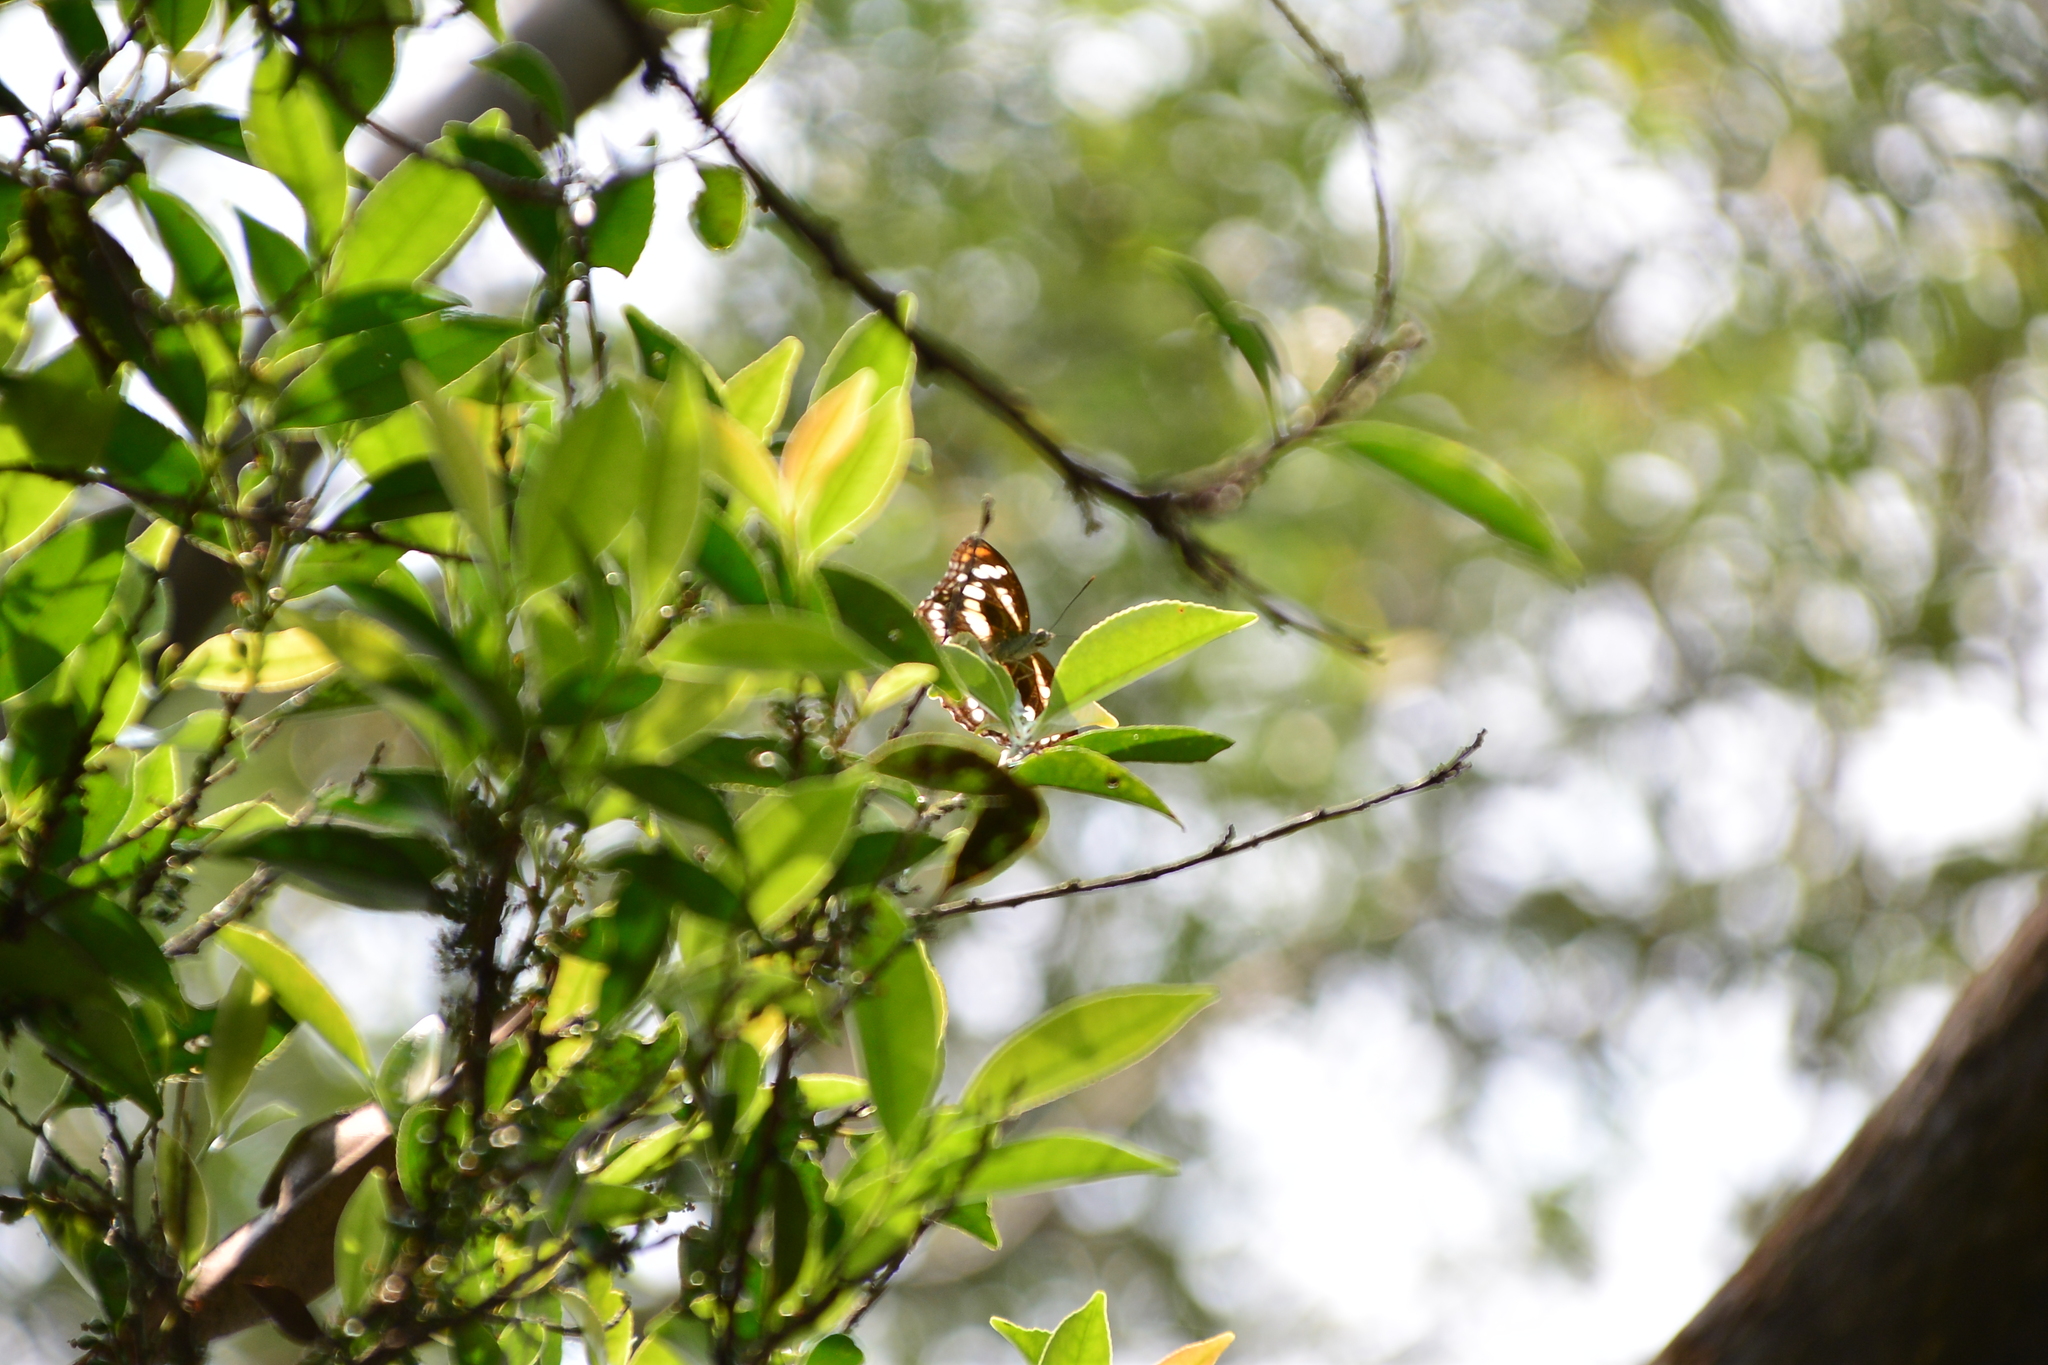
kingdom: Animalia
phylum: Arthropoda
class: Insecta
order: Lepidoptera
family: Nymphalidae
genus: Parathyma
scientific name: Parathyma nefte
